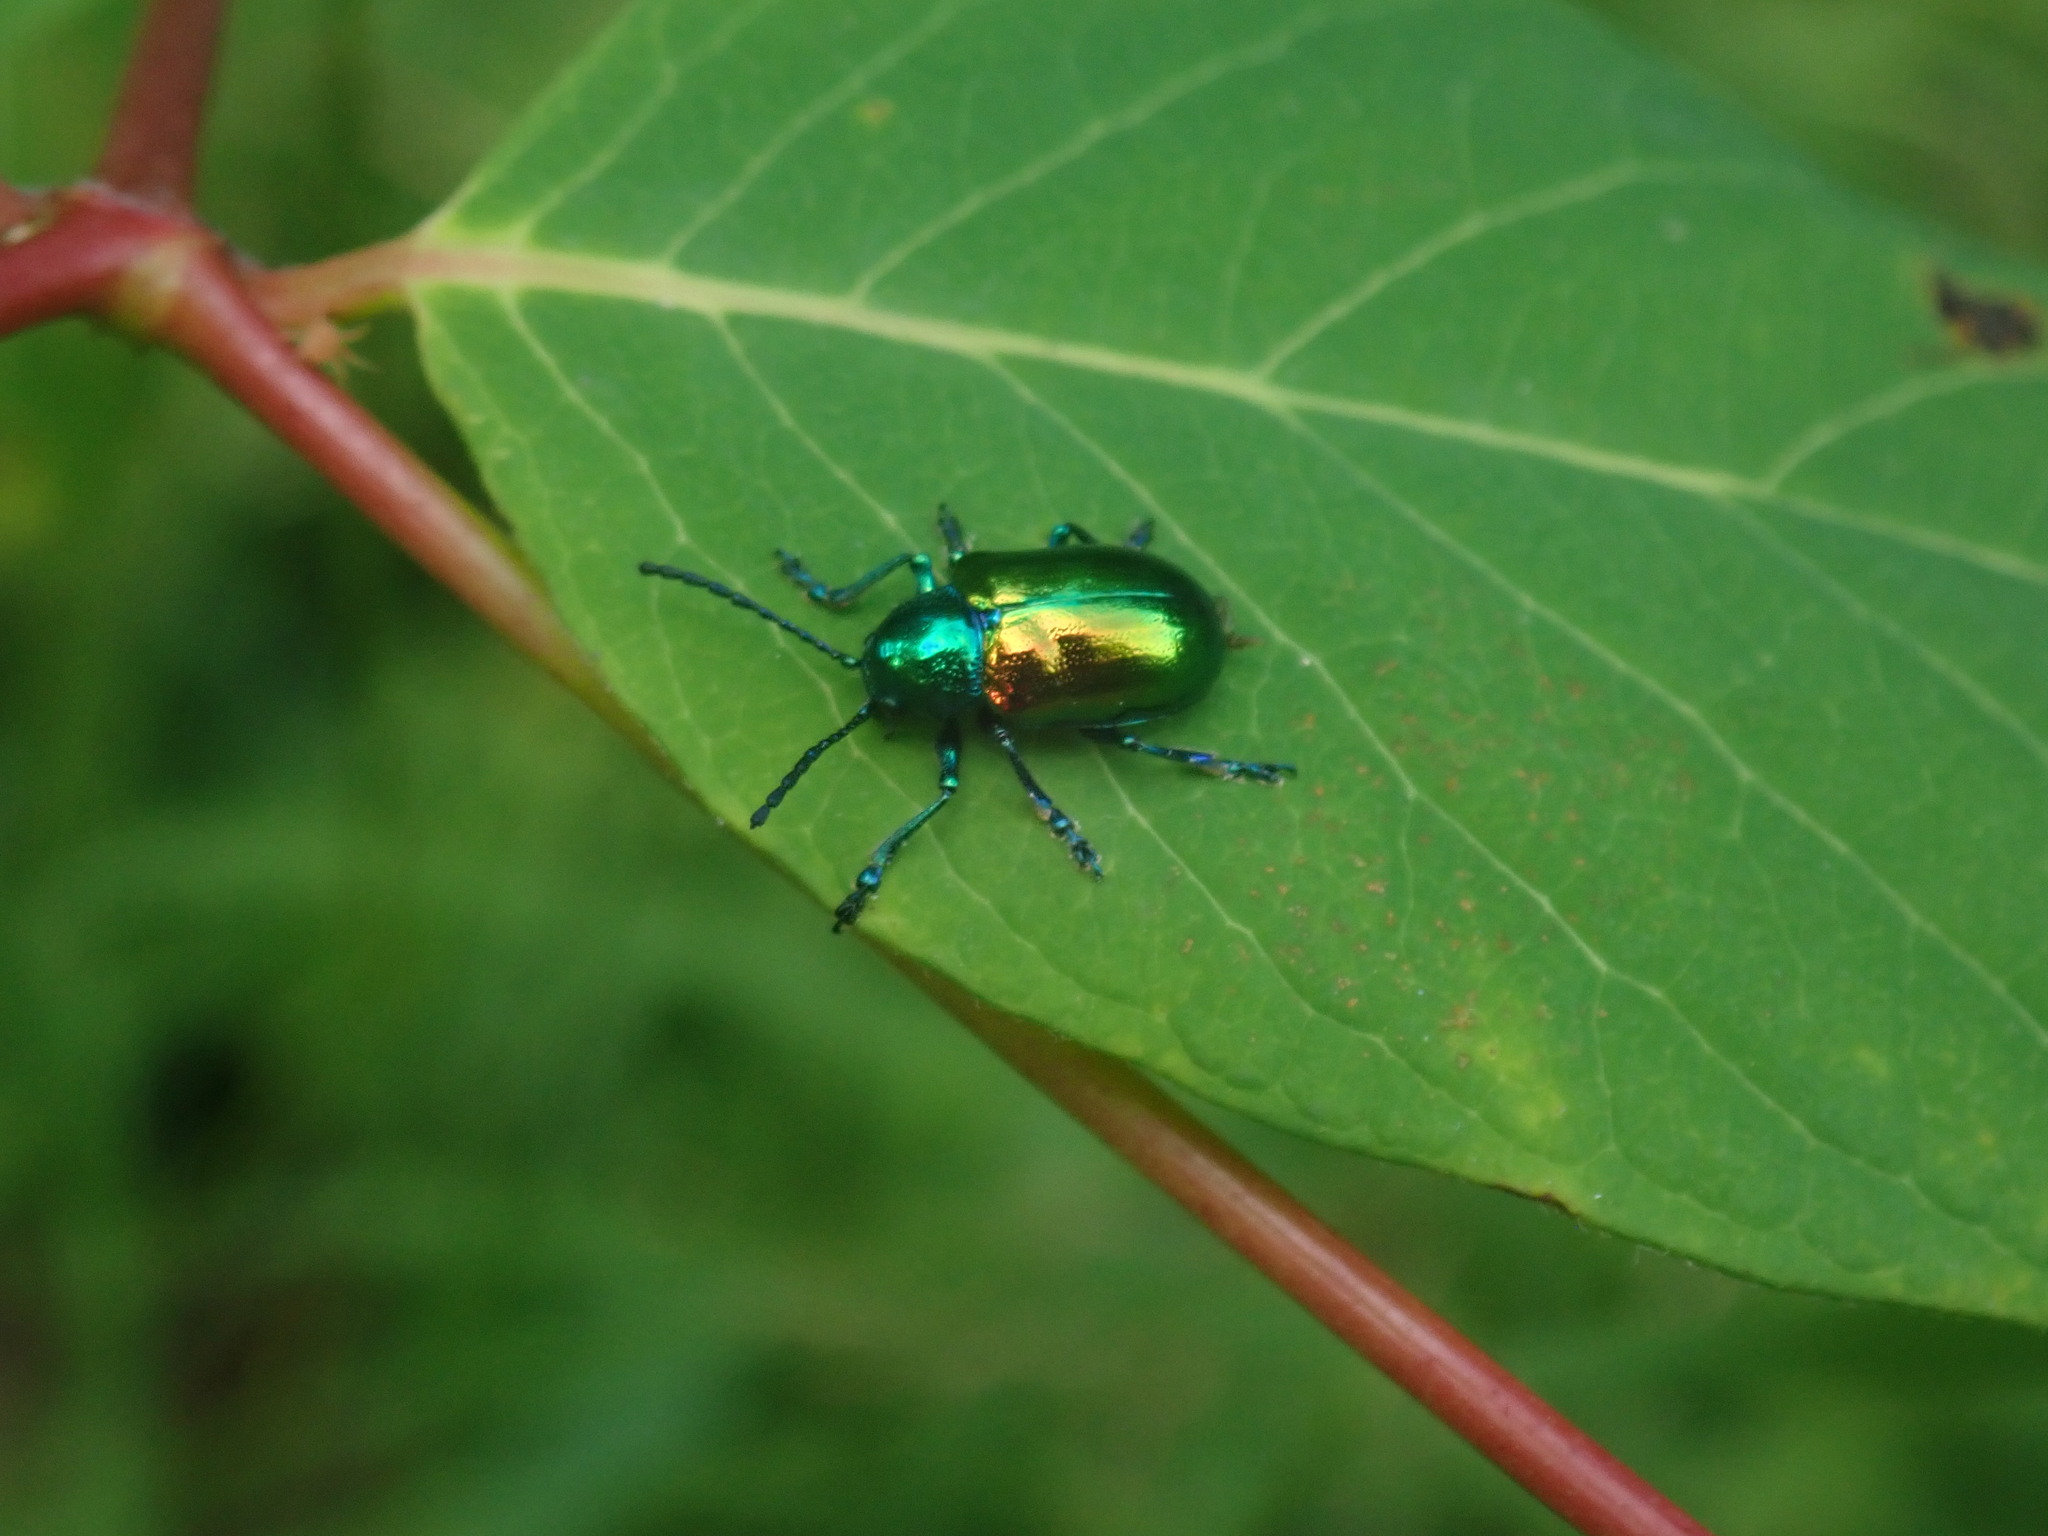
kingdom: Animalia
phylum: Arthropoda
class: Insecta
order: Coleoptera
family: Chrysomelidae
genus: Chrysochus
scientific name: Chrysochus auratus
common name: Dogbane leaf beetle
